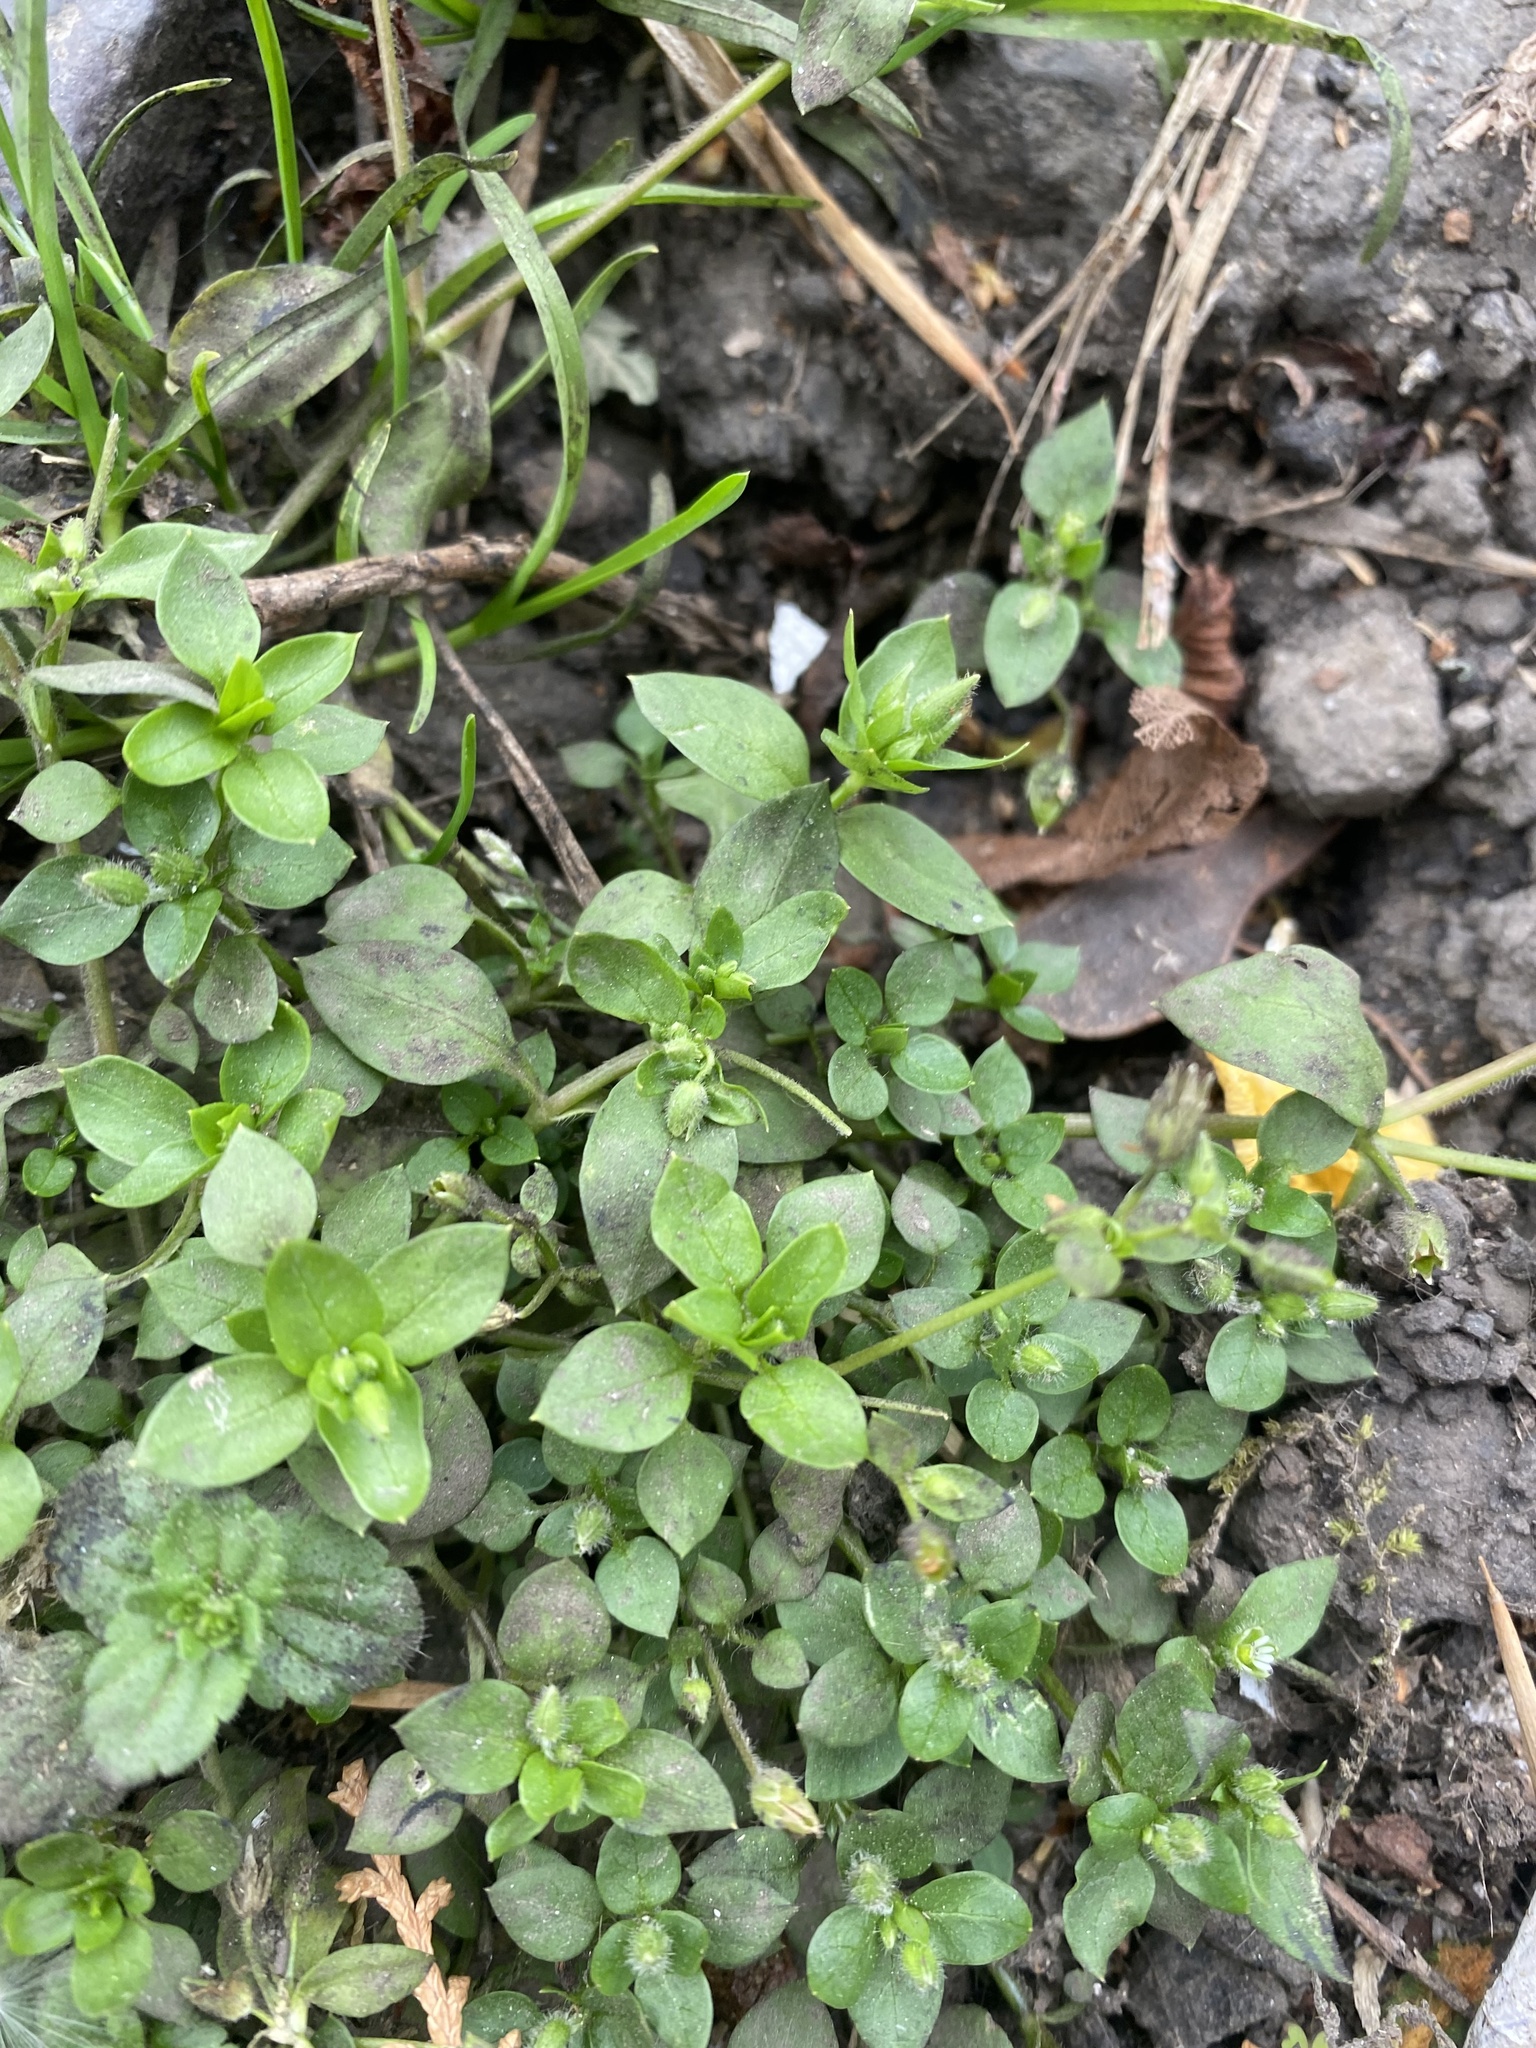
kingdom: Plantae
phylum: Tracheophyta
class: Magnoliopsida
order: Caryophyllales
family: Caryophyllaceae
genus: Stellaria
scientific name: Stellaria media
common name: Common chickweed
